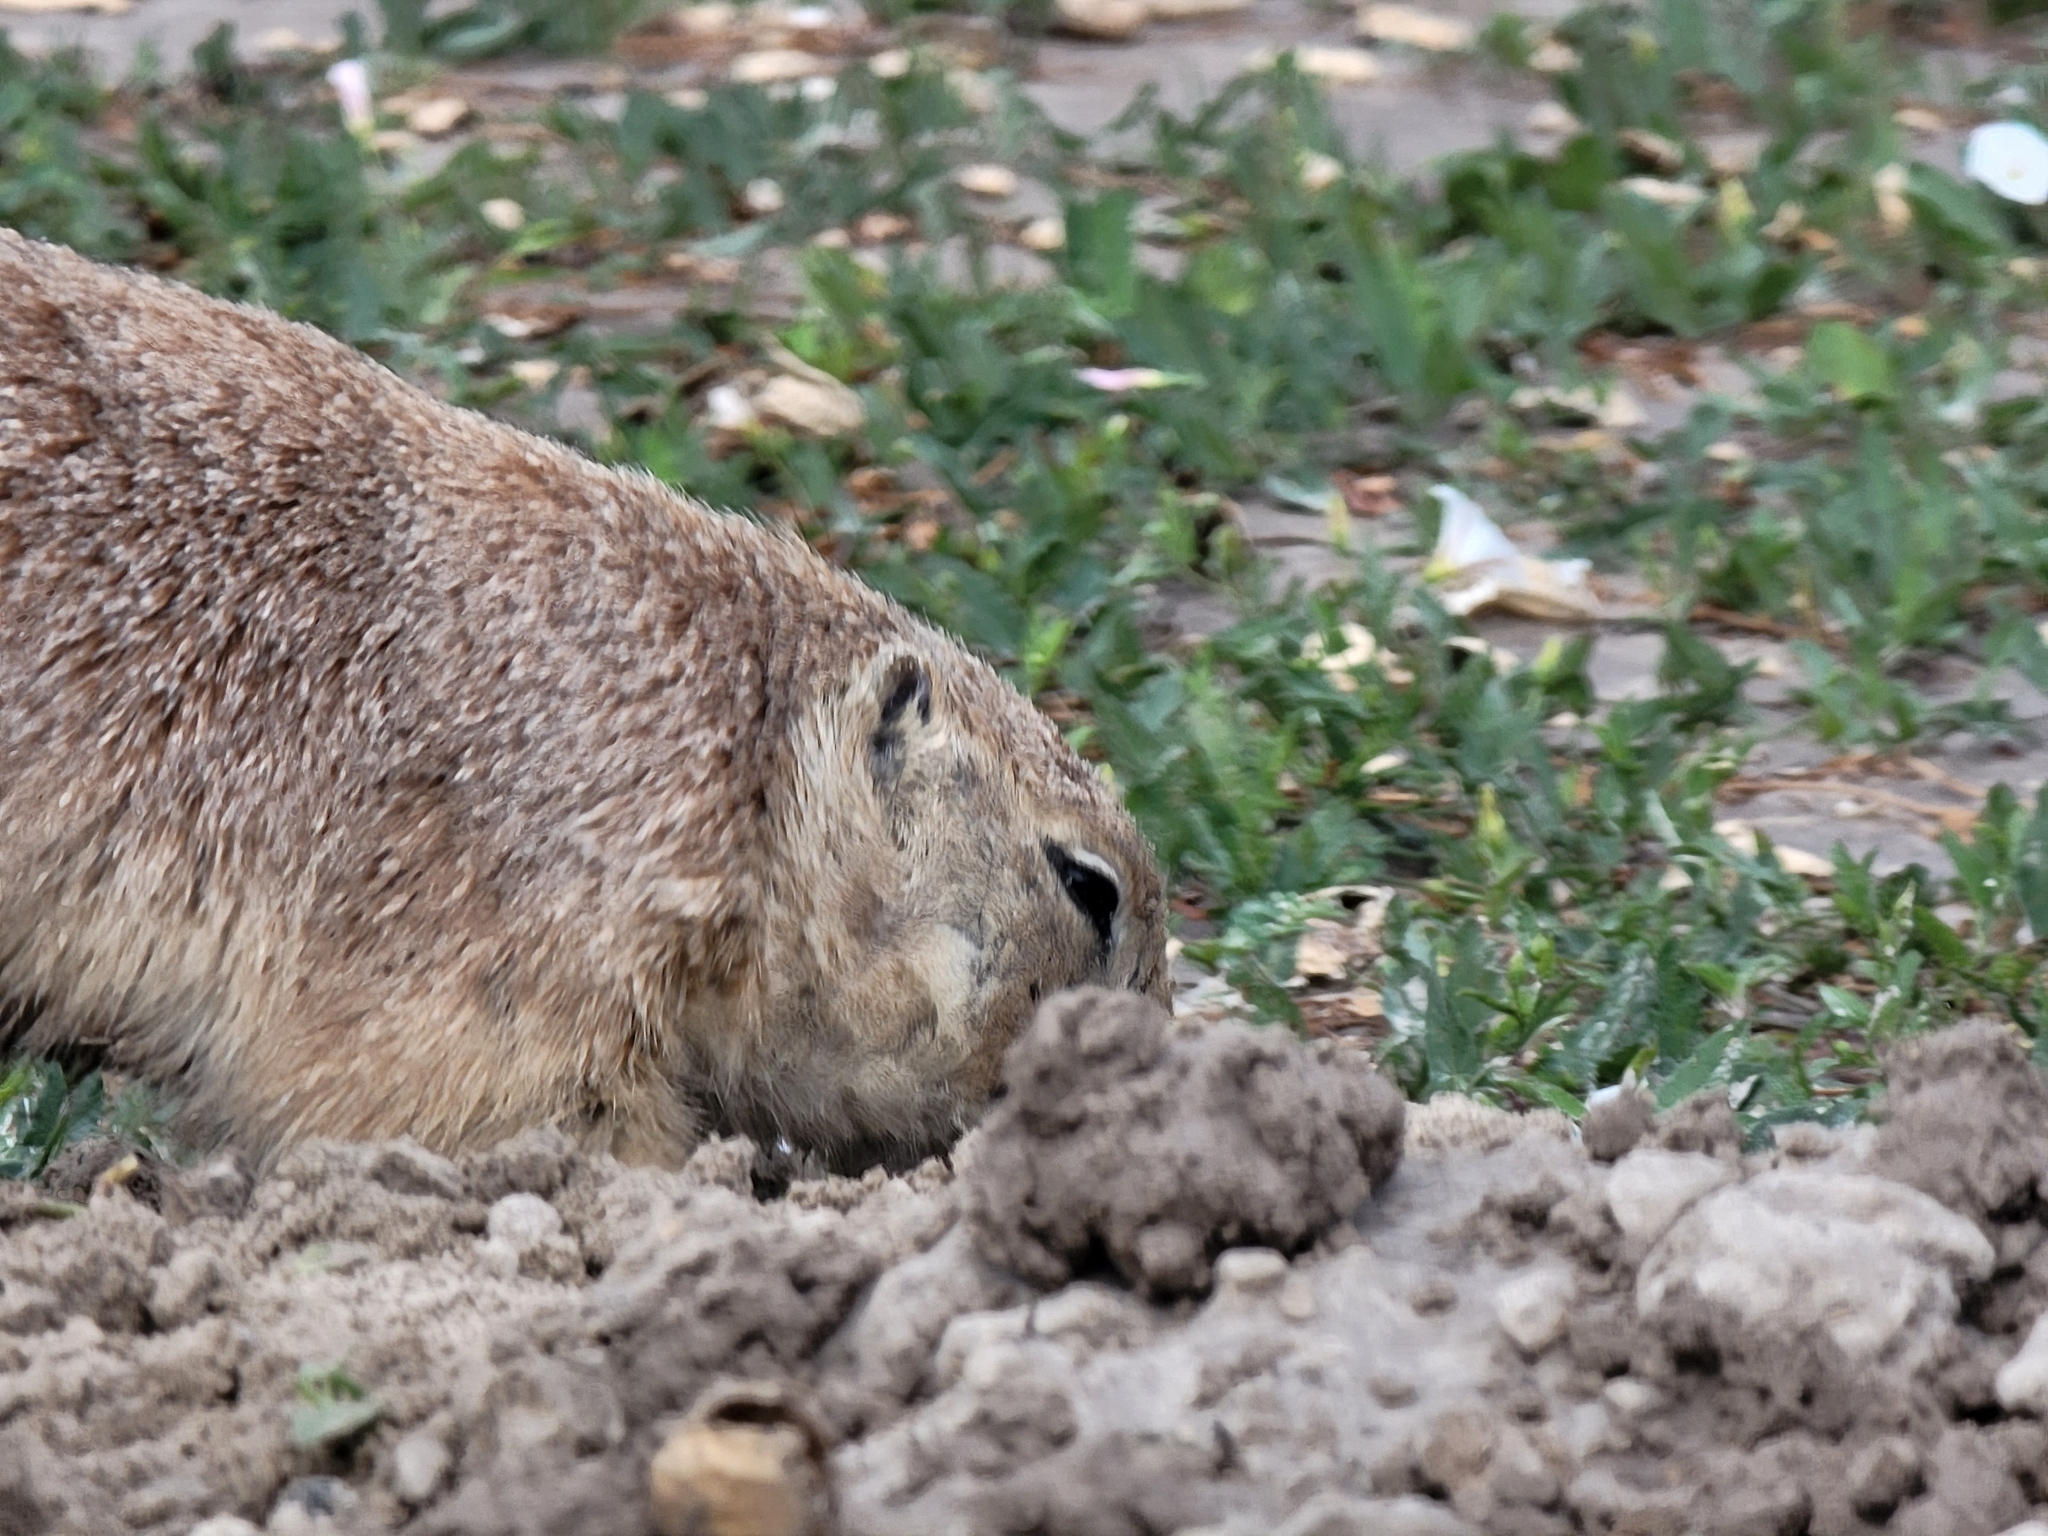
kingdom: Animalia
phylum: Chordata
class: Mammalia
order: Rodentia
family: Sciuridae
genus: Cynomys
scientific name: Cynomys ludovicianus
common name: Black-tailed prairie dog
